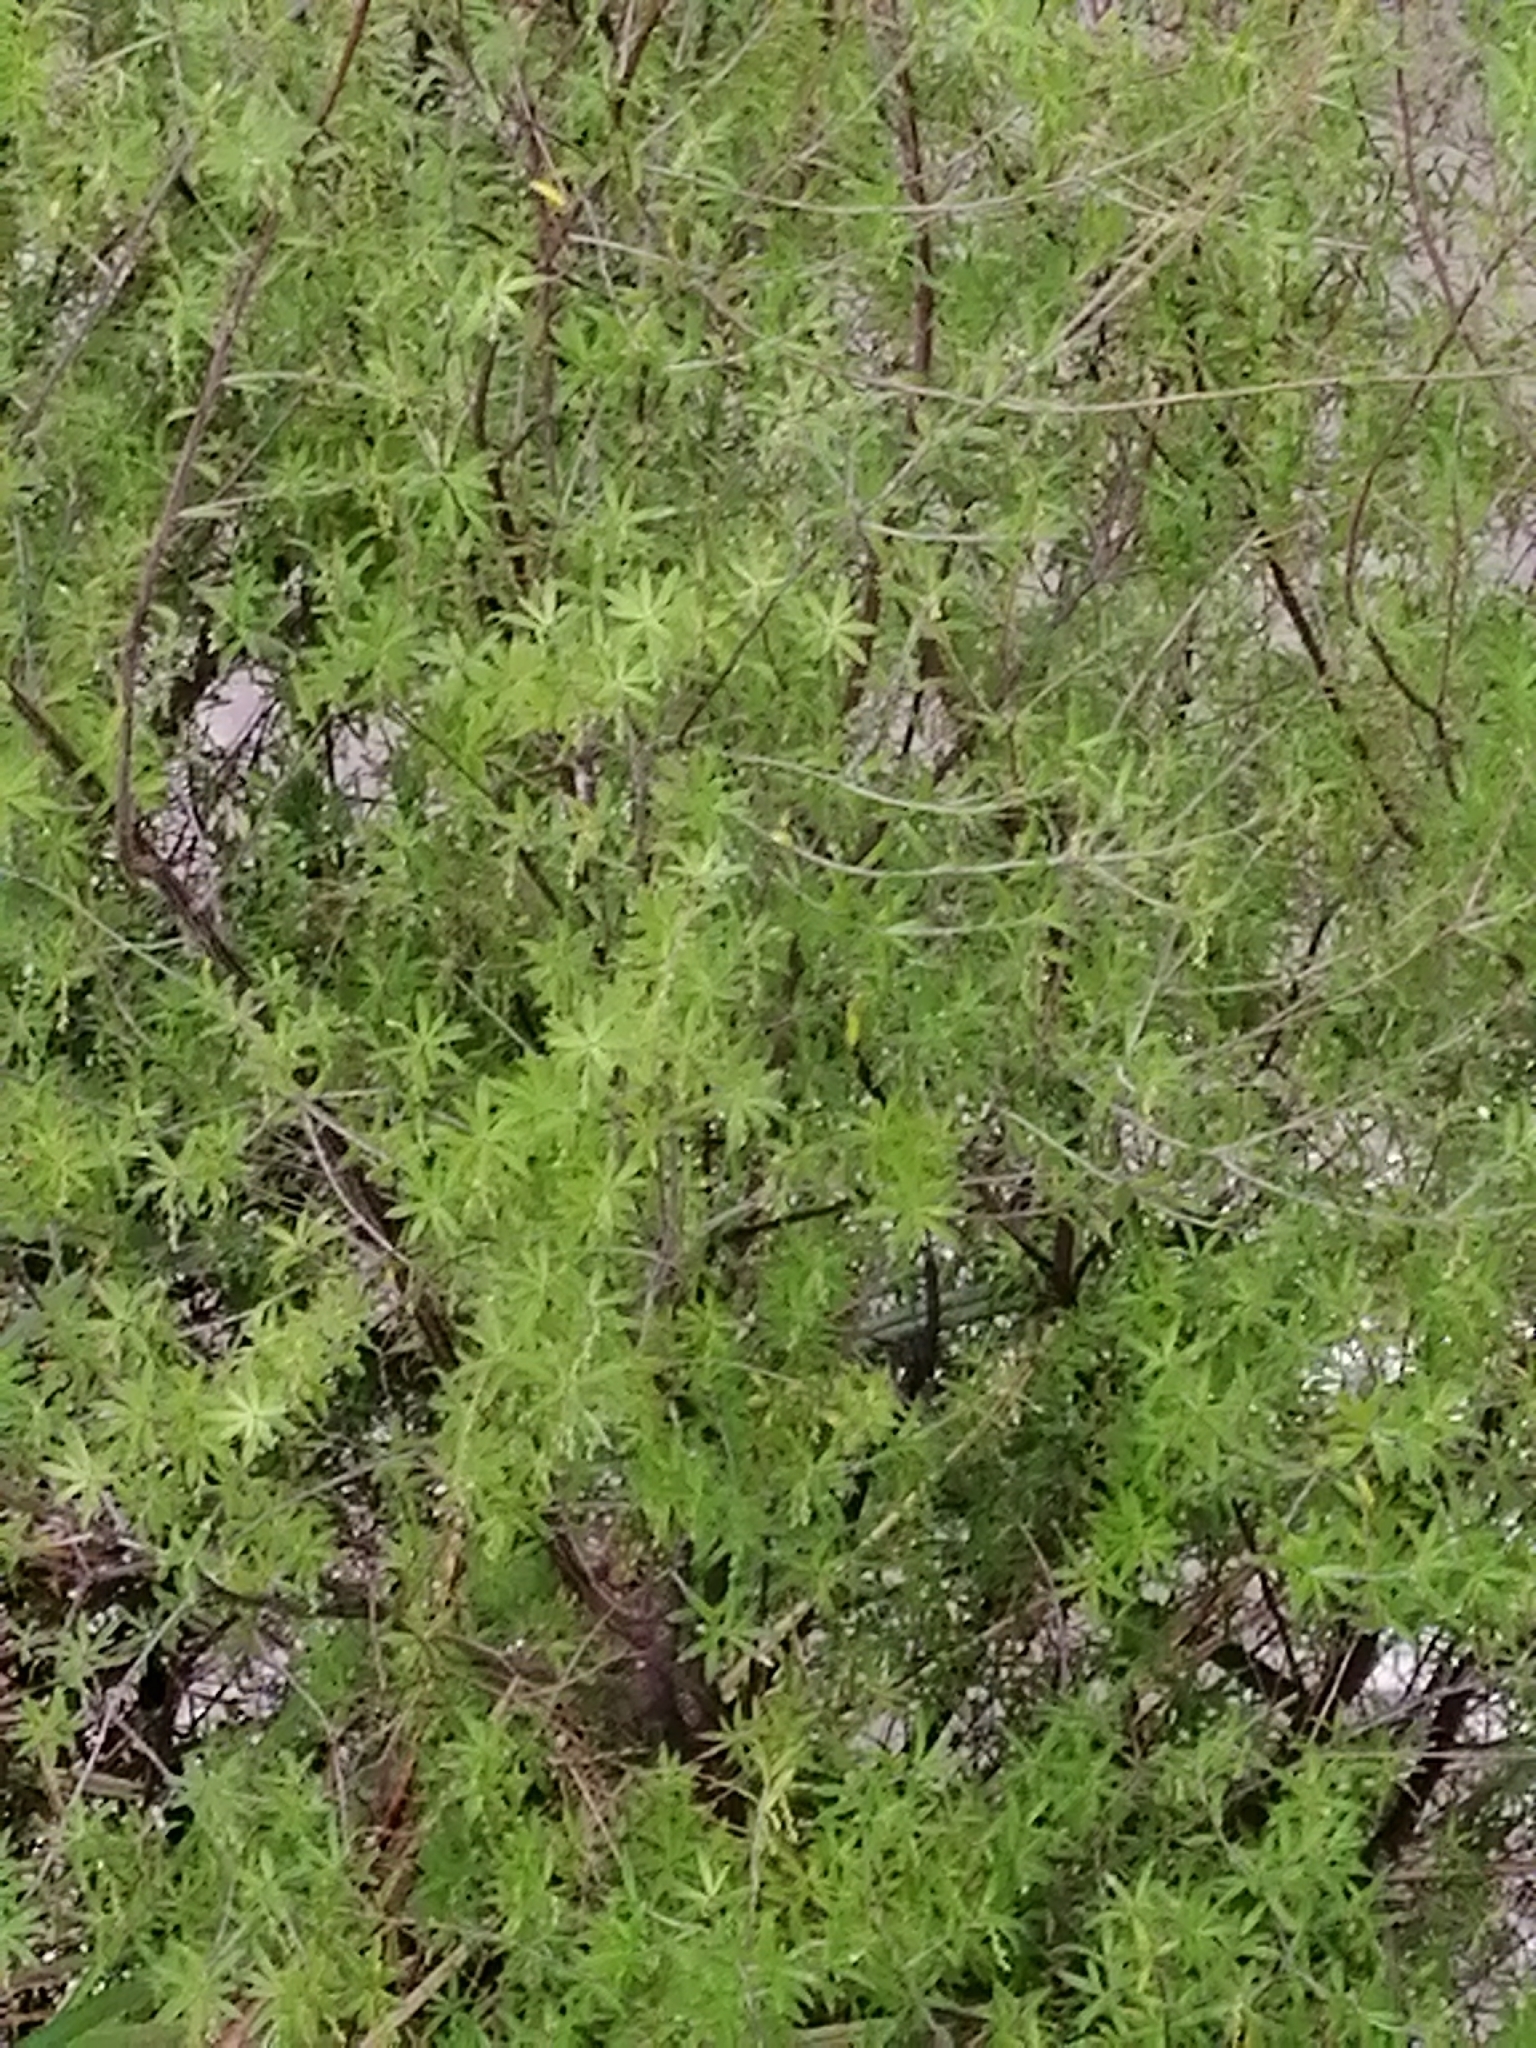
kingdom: Plantae
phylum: Tracheophyta
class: Magnoliopsida
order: Ericales
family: Ericaceae
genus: Leucopogon
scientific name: Leucopogon fasciculatus
